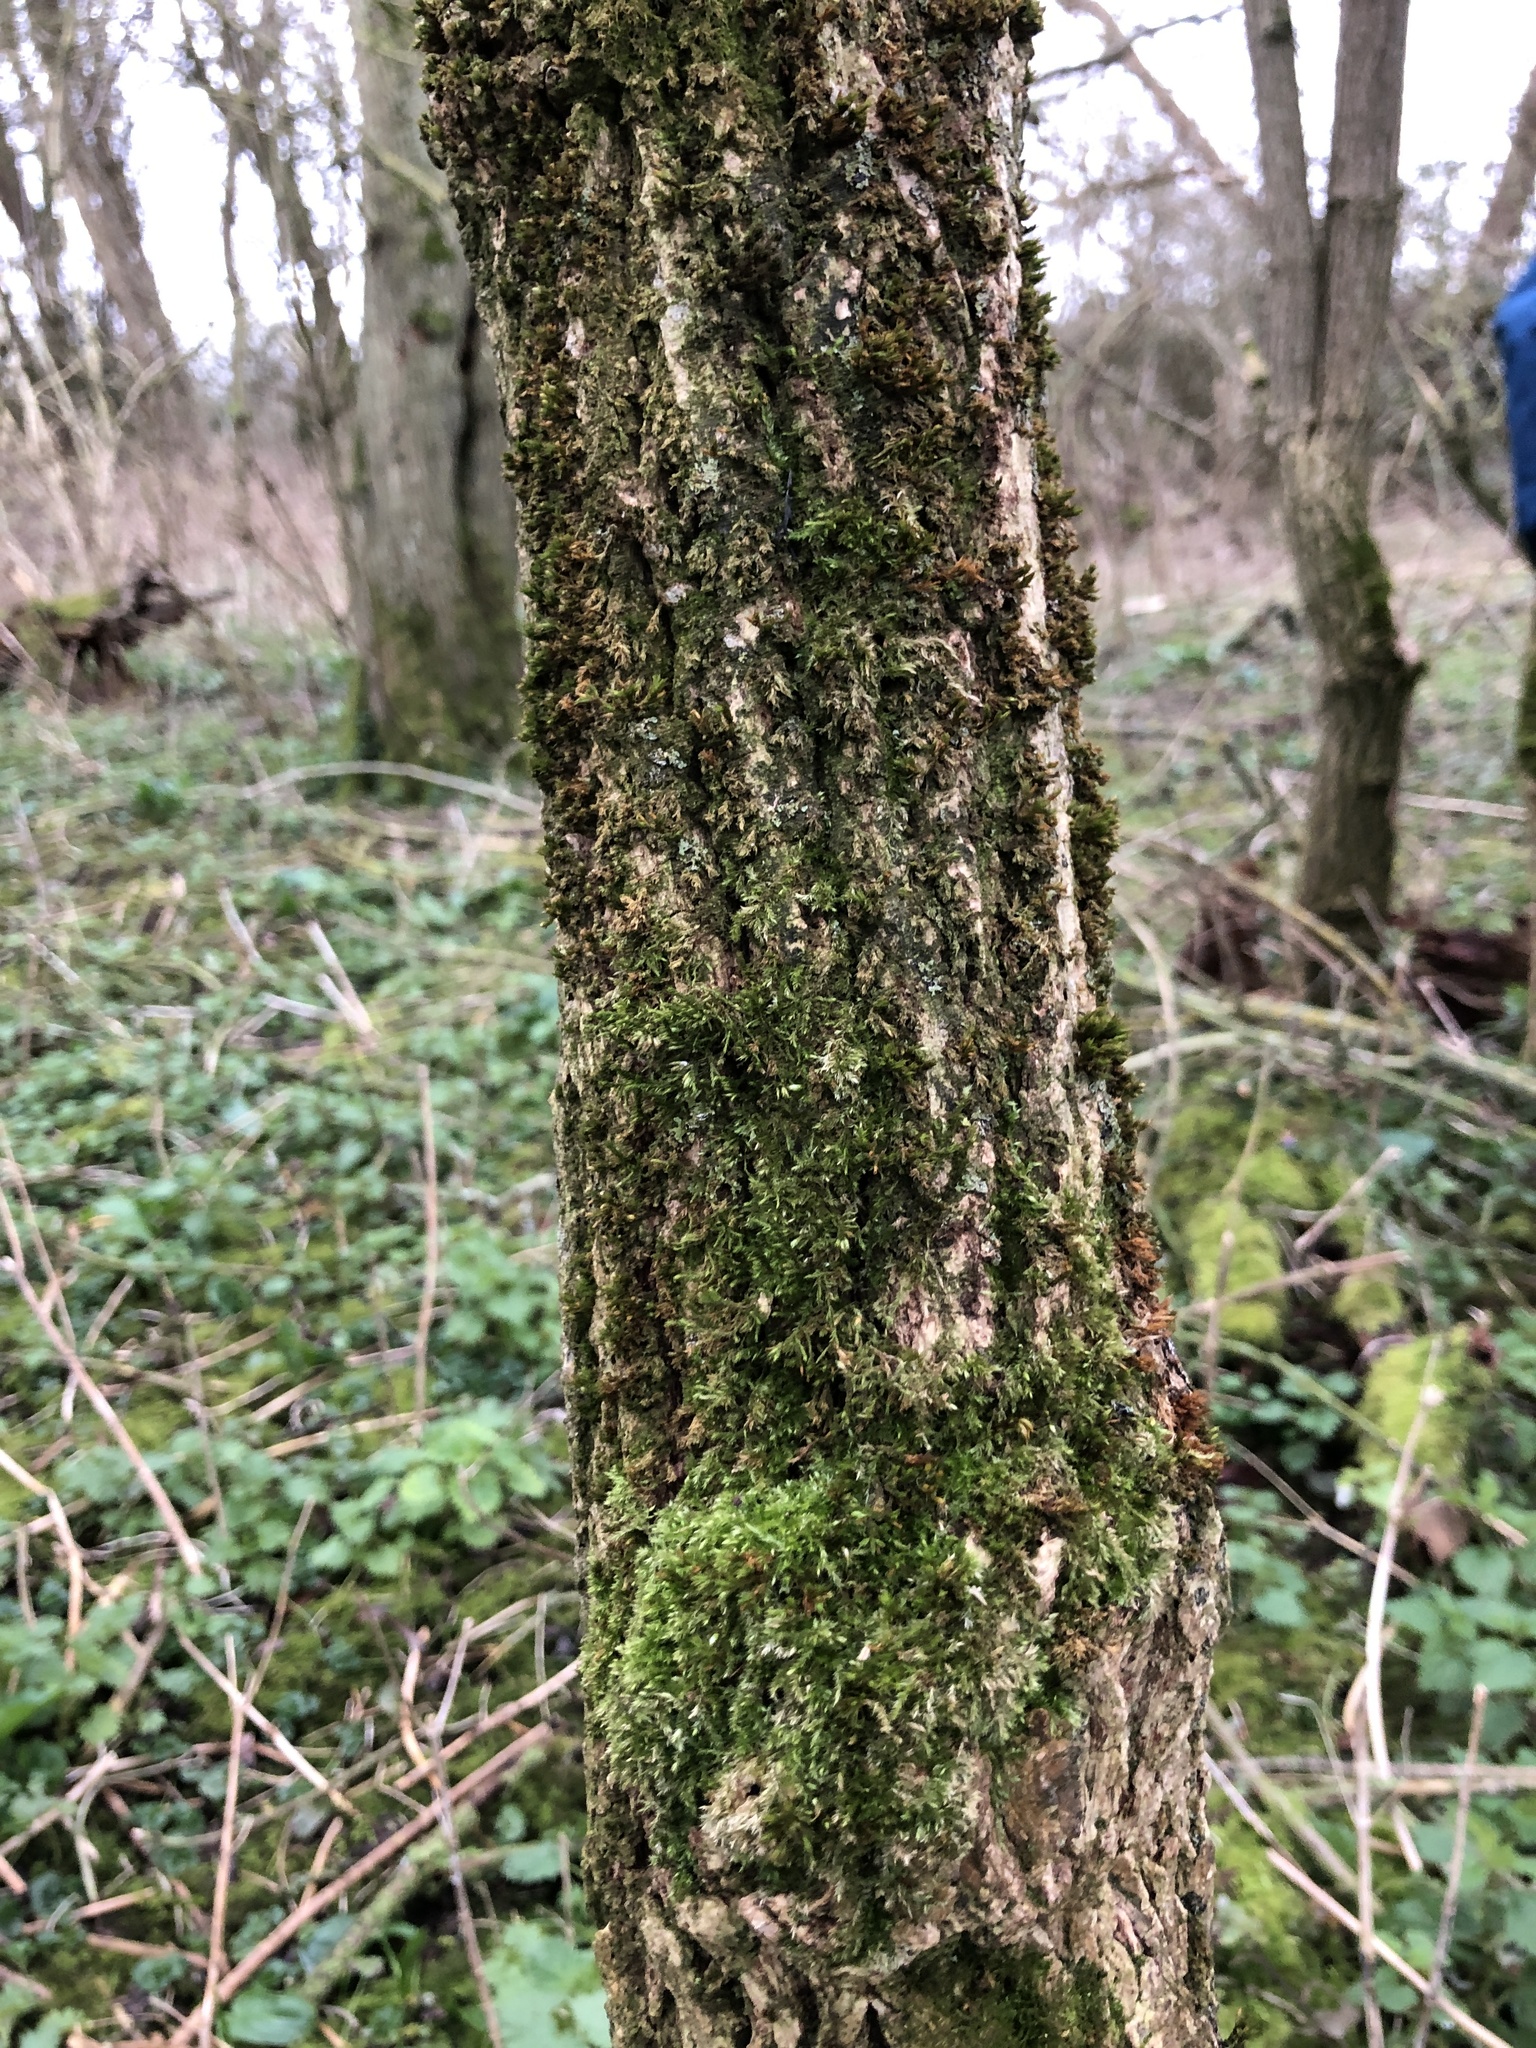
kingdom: Plantae
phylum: Bryophyta
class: Bryopsida
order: Hypnales
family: Cryphaeaceae
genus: Cryphaea
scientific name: Cryphaea heteromalla
